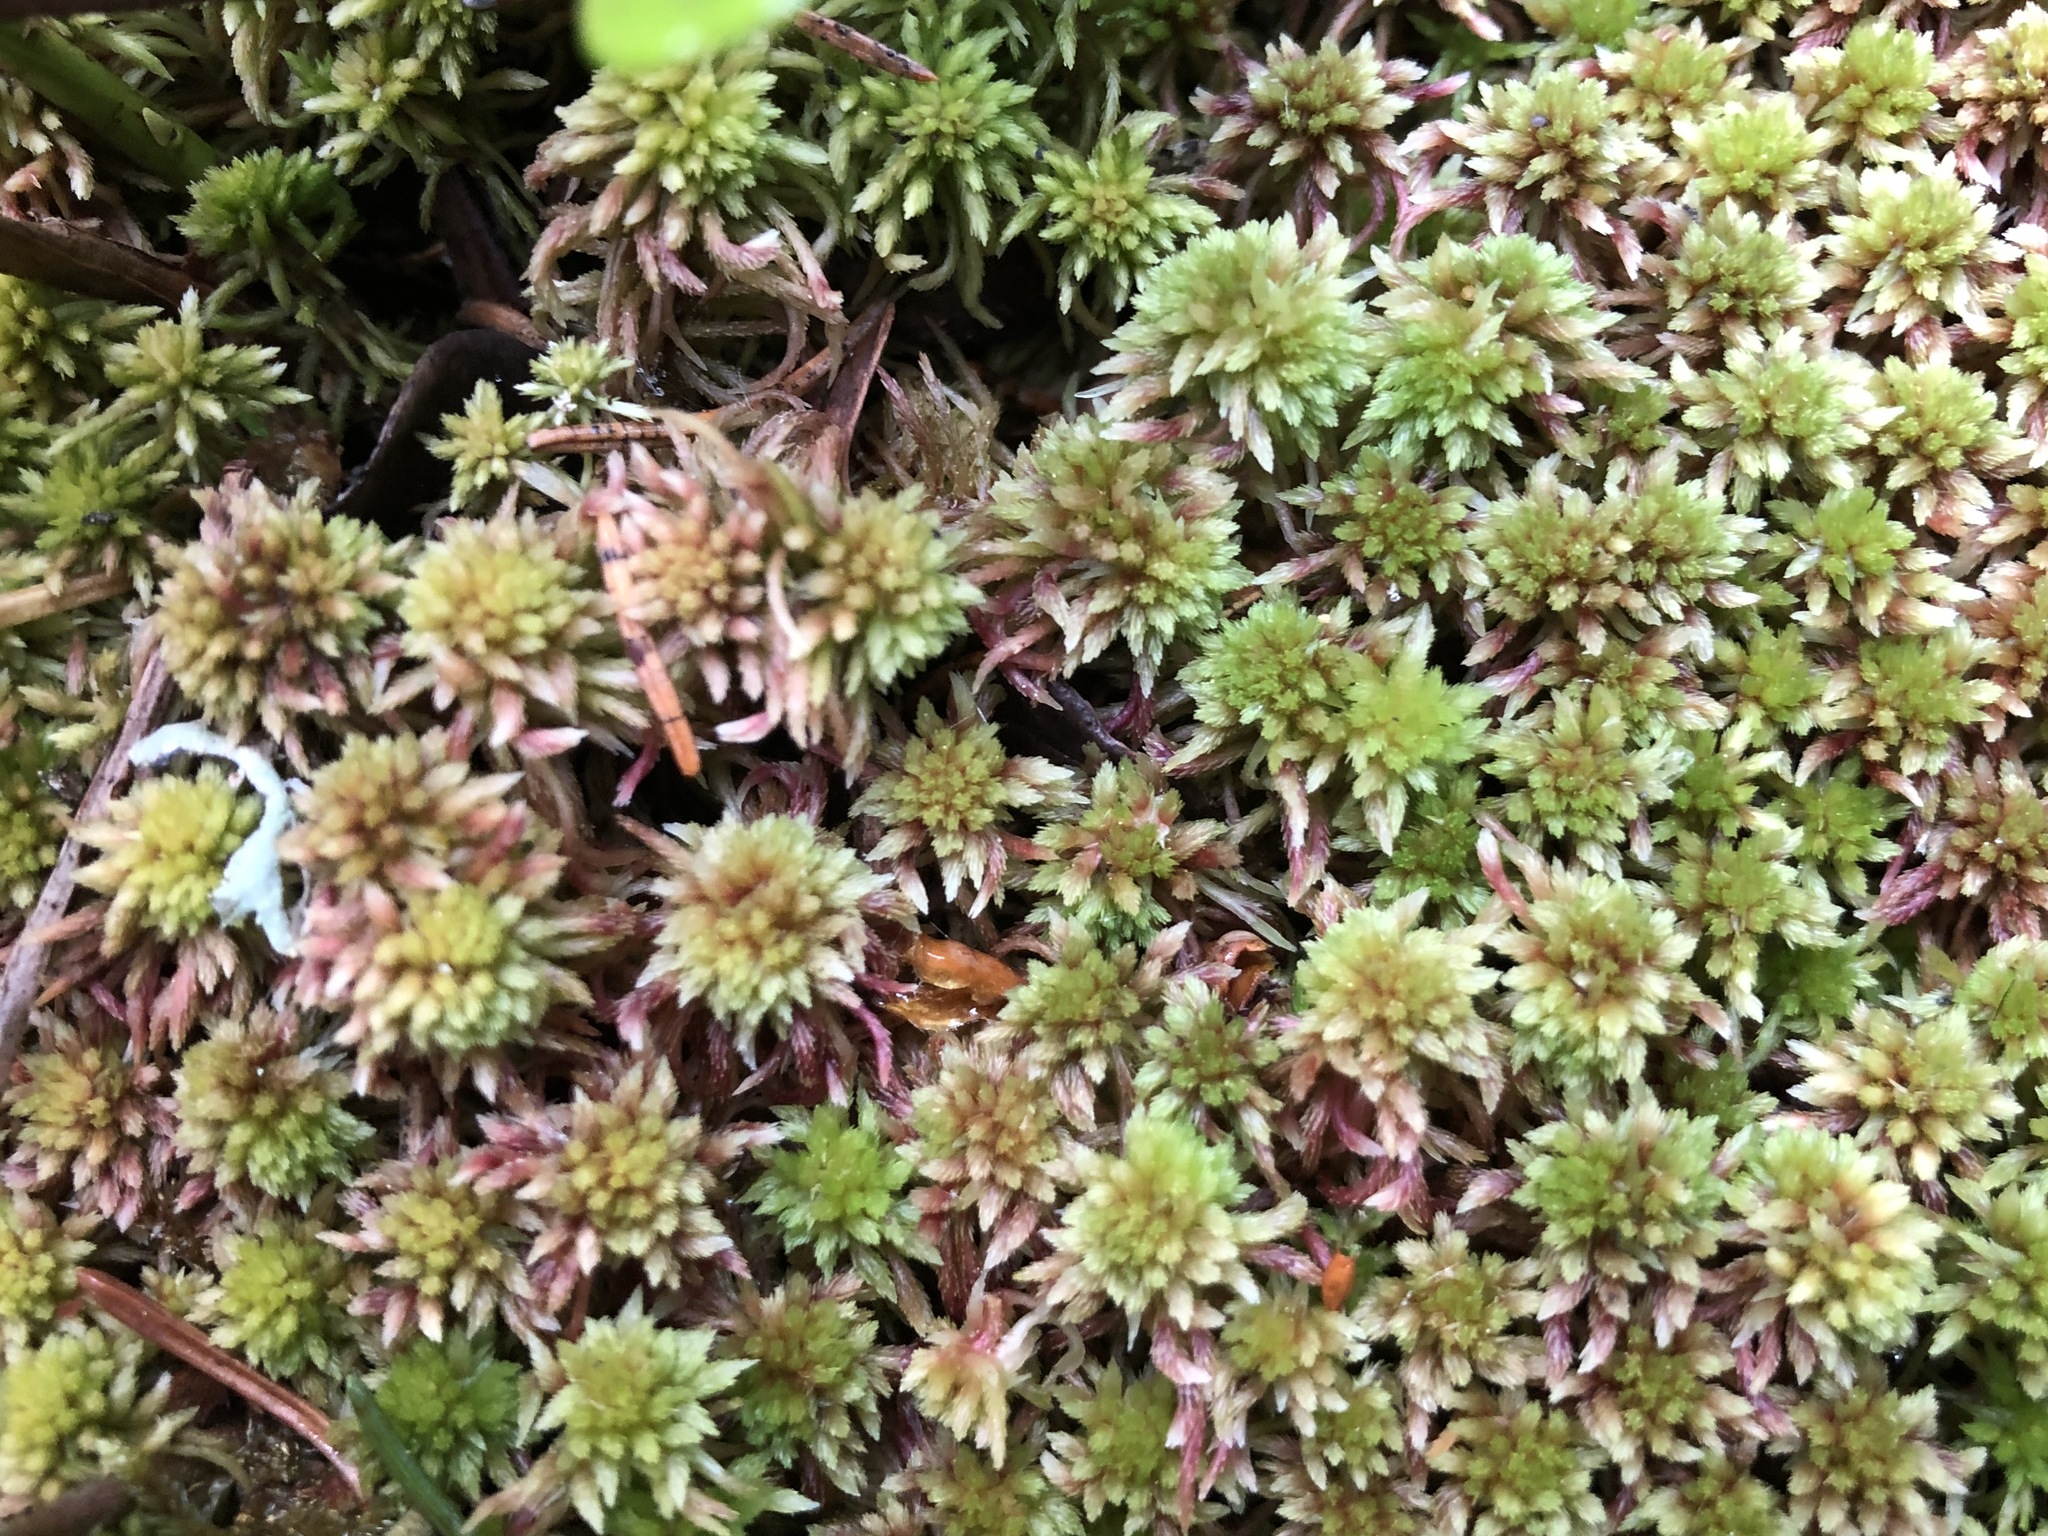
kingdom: Plantae
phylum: Bryophyta
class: Sphagnopsida
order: Sphagnales
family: Sphagnaceae
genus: Sphagnum
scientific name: Sphagnum capillifolium
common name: Small red peat moss
